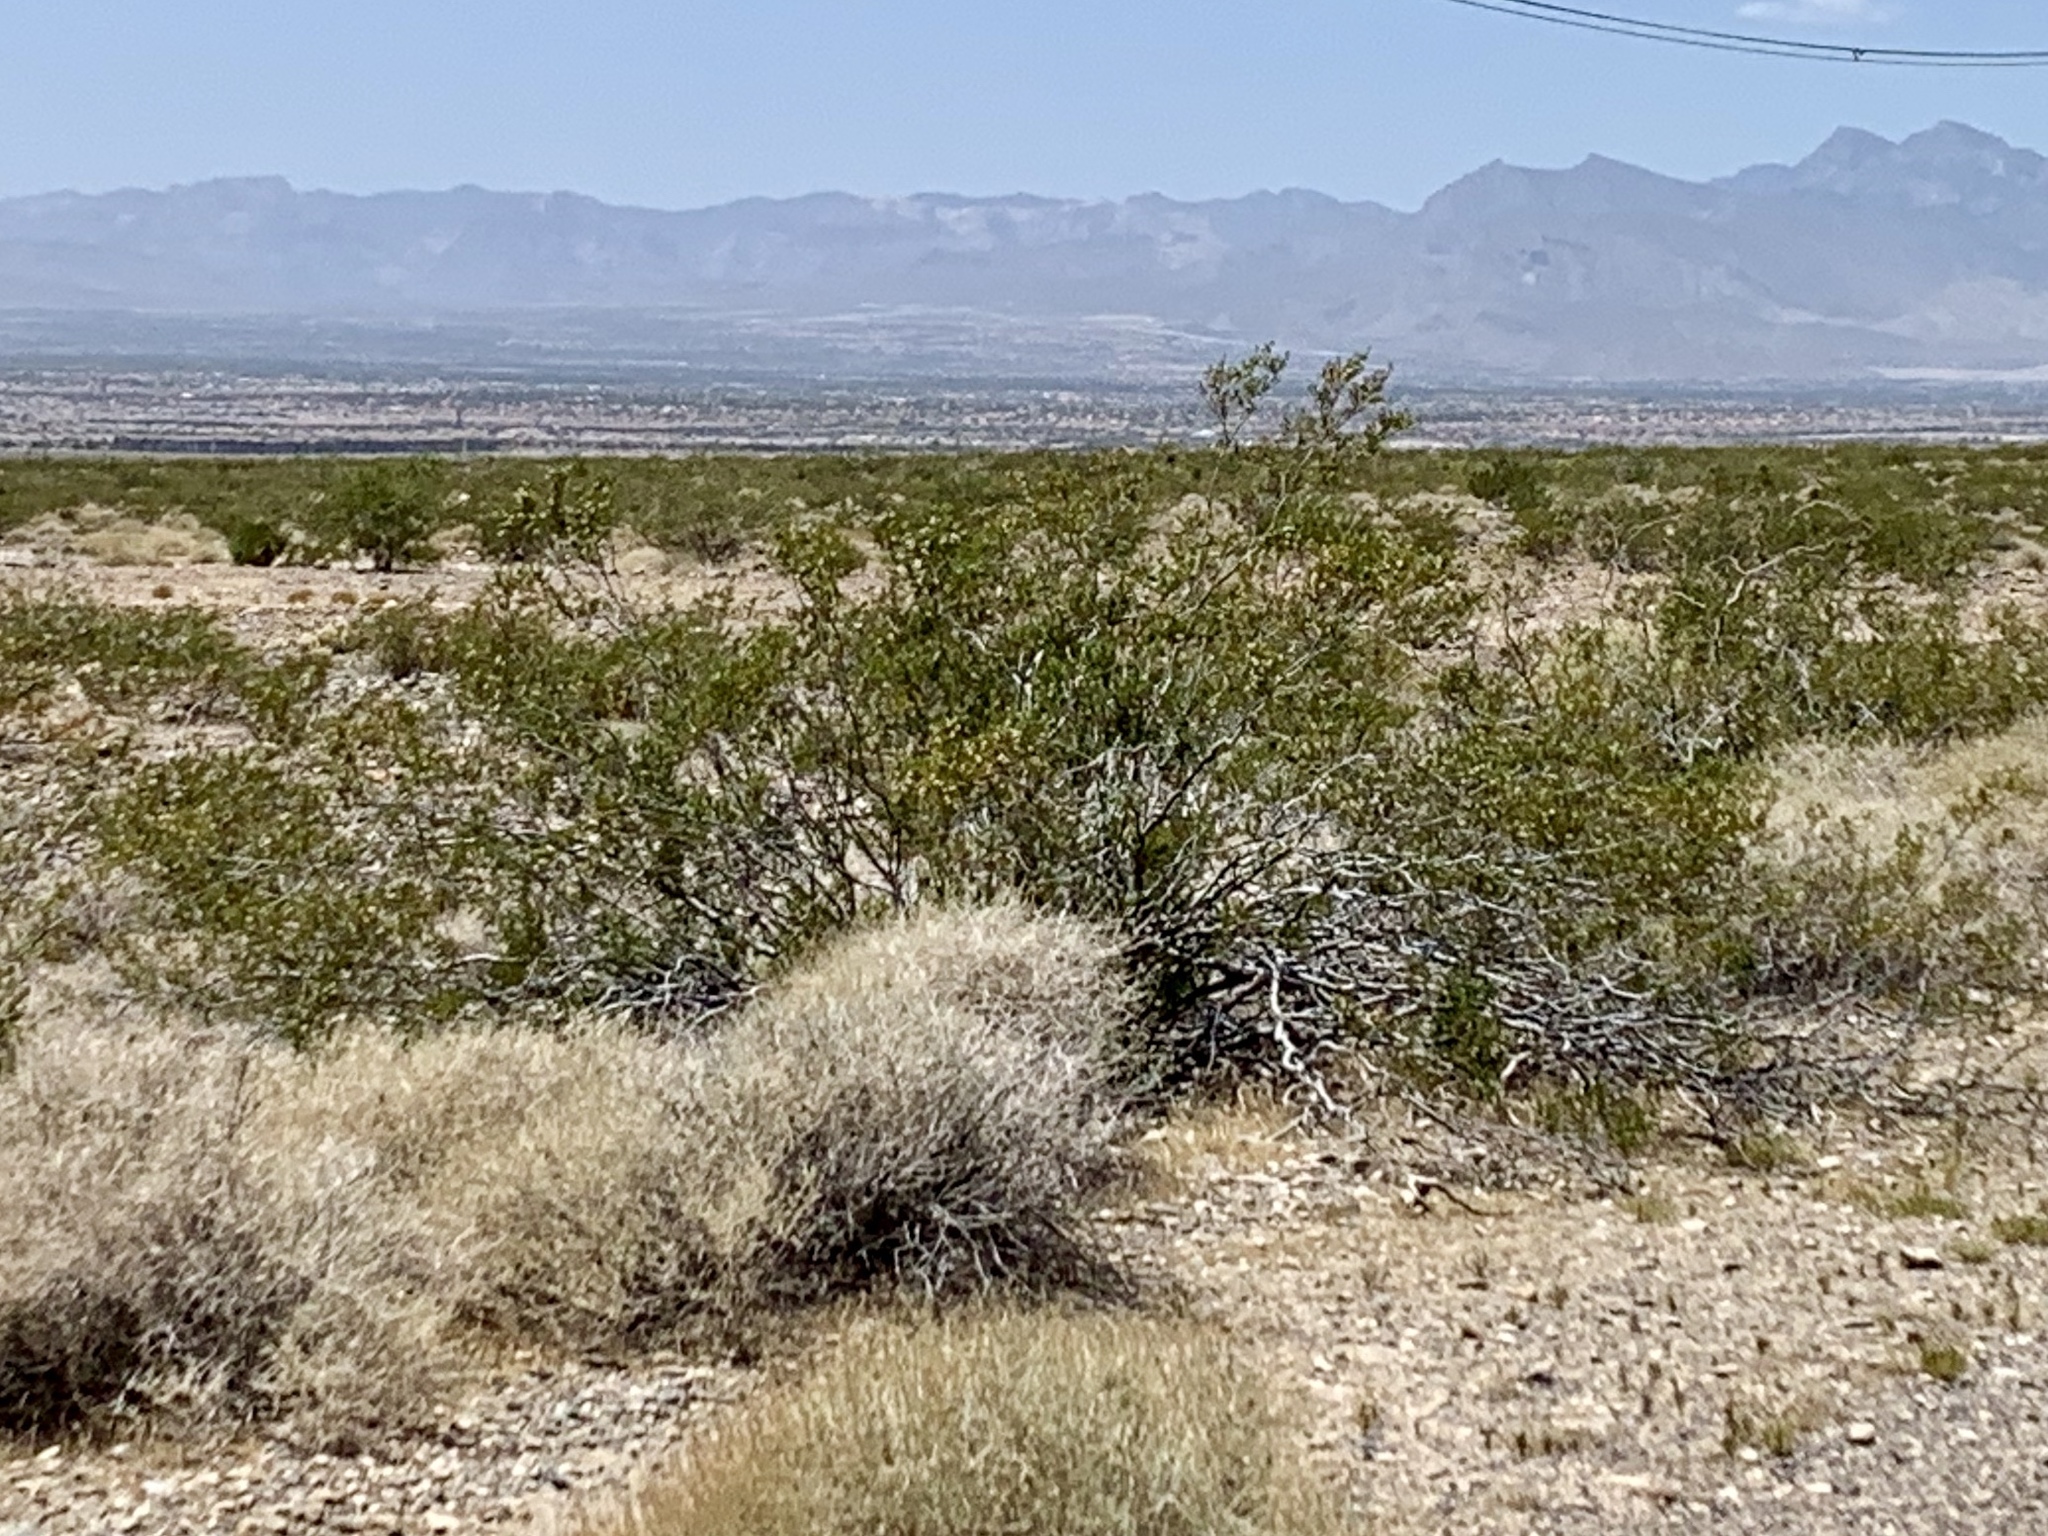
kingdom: Plantae
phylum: Tracheophyta
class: Magnoliopsida
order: Zygophyllales
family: Zygophyllaceae
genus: Larrea
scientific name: Larrea tridentata
